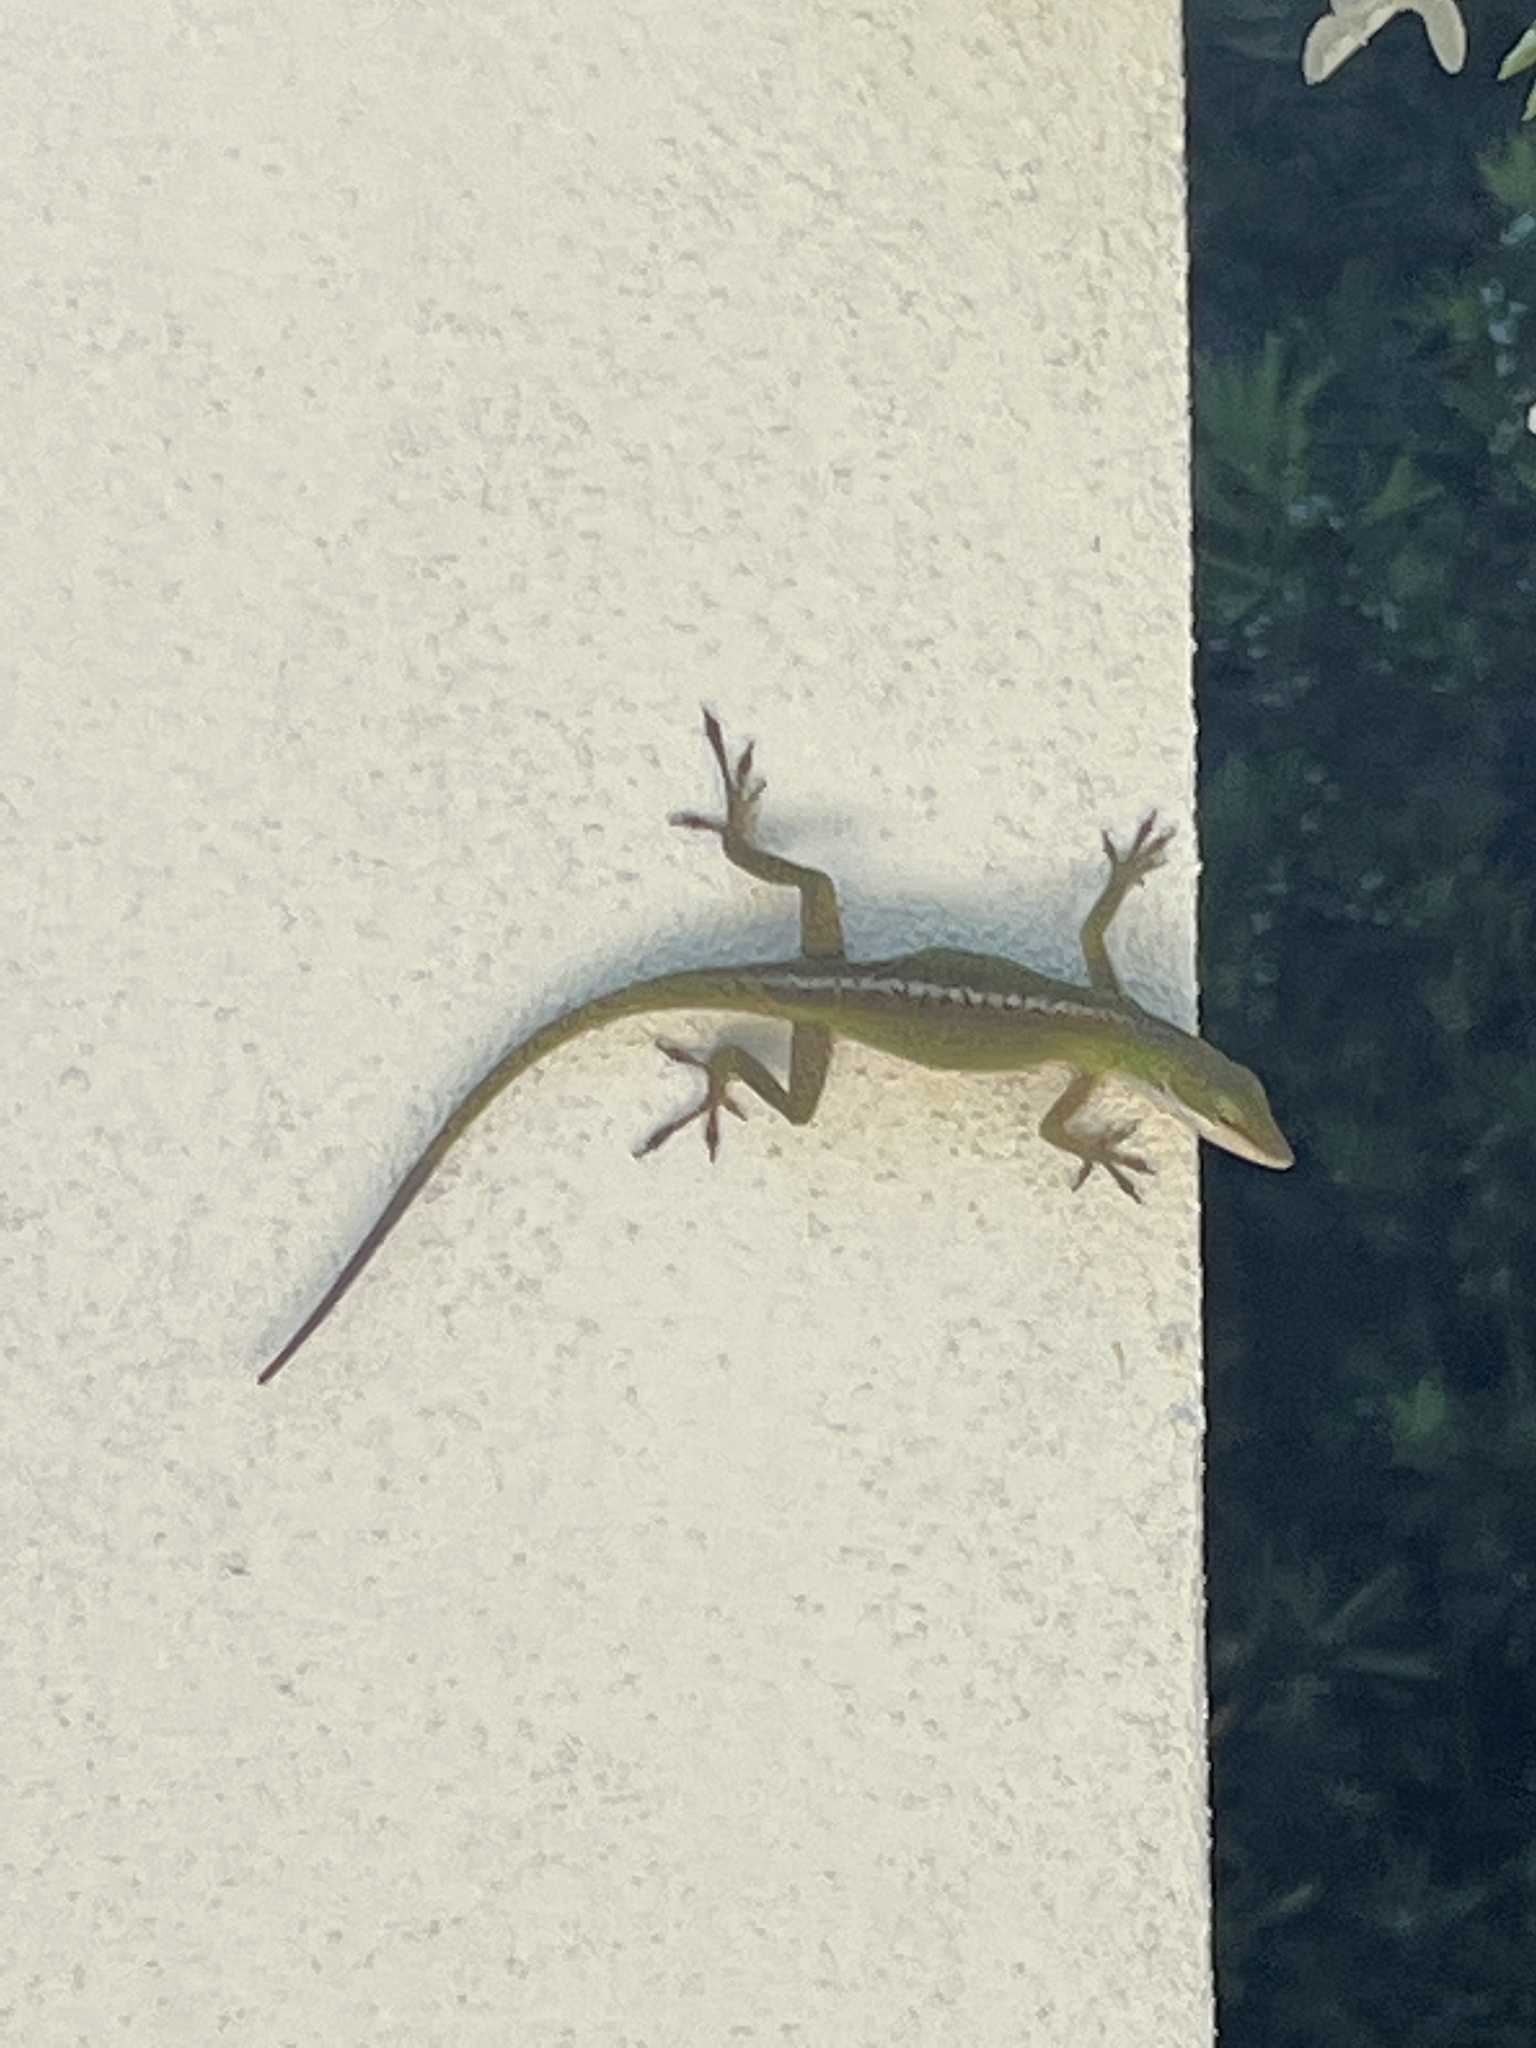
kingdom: Animalia
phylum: Chordata
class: Squamata
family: Dactyloidae
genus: Anolis
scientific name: Anolis carolinensis
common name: Green anole
